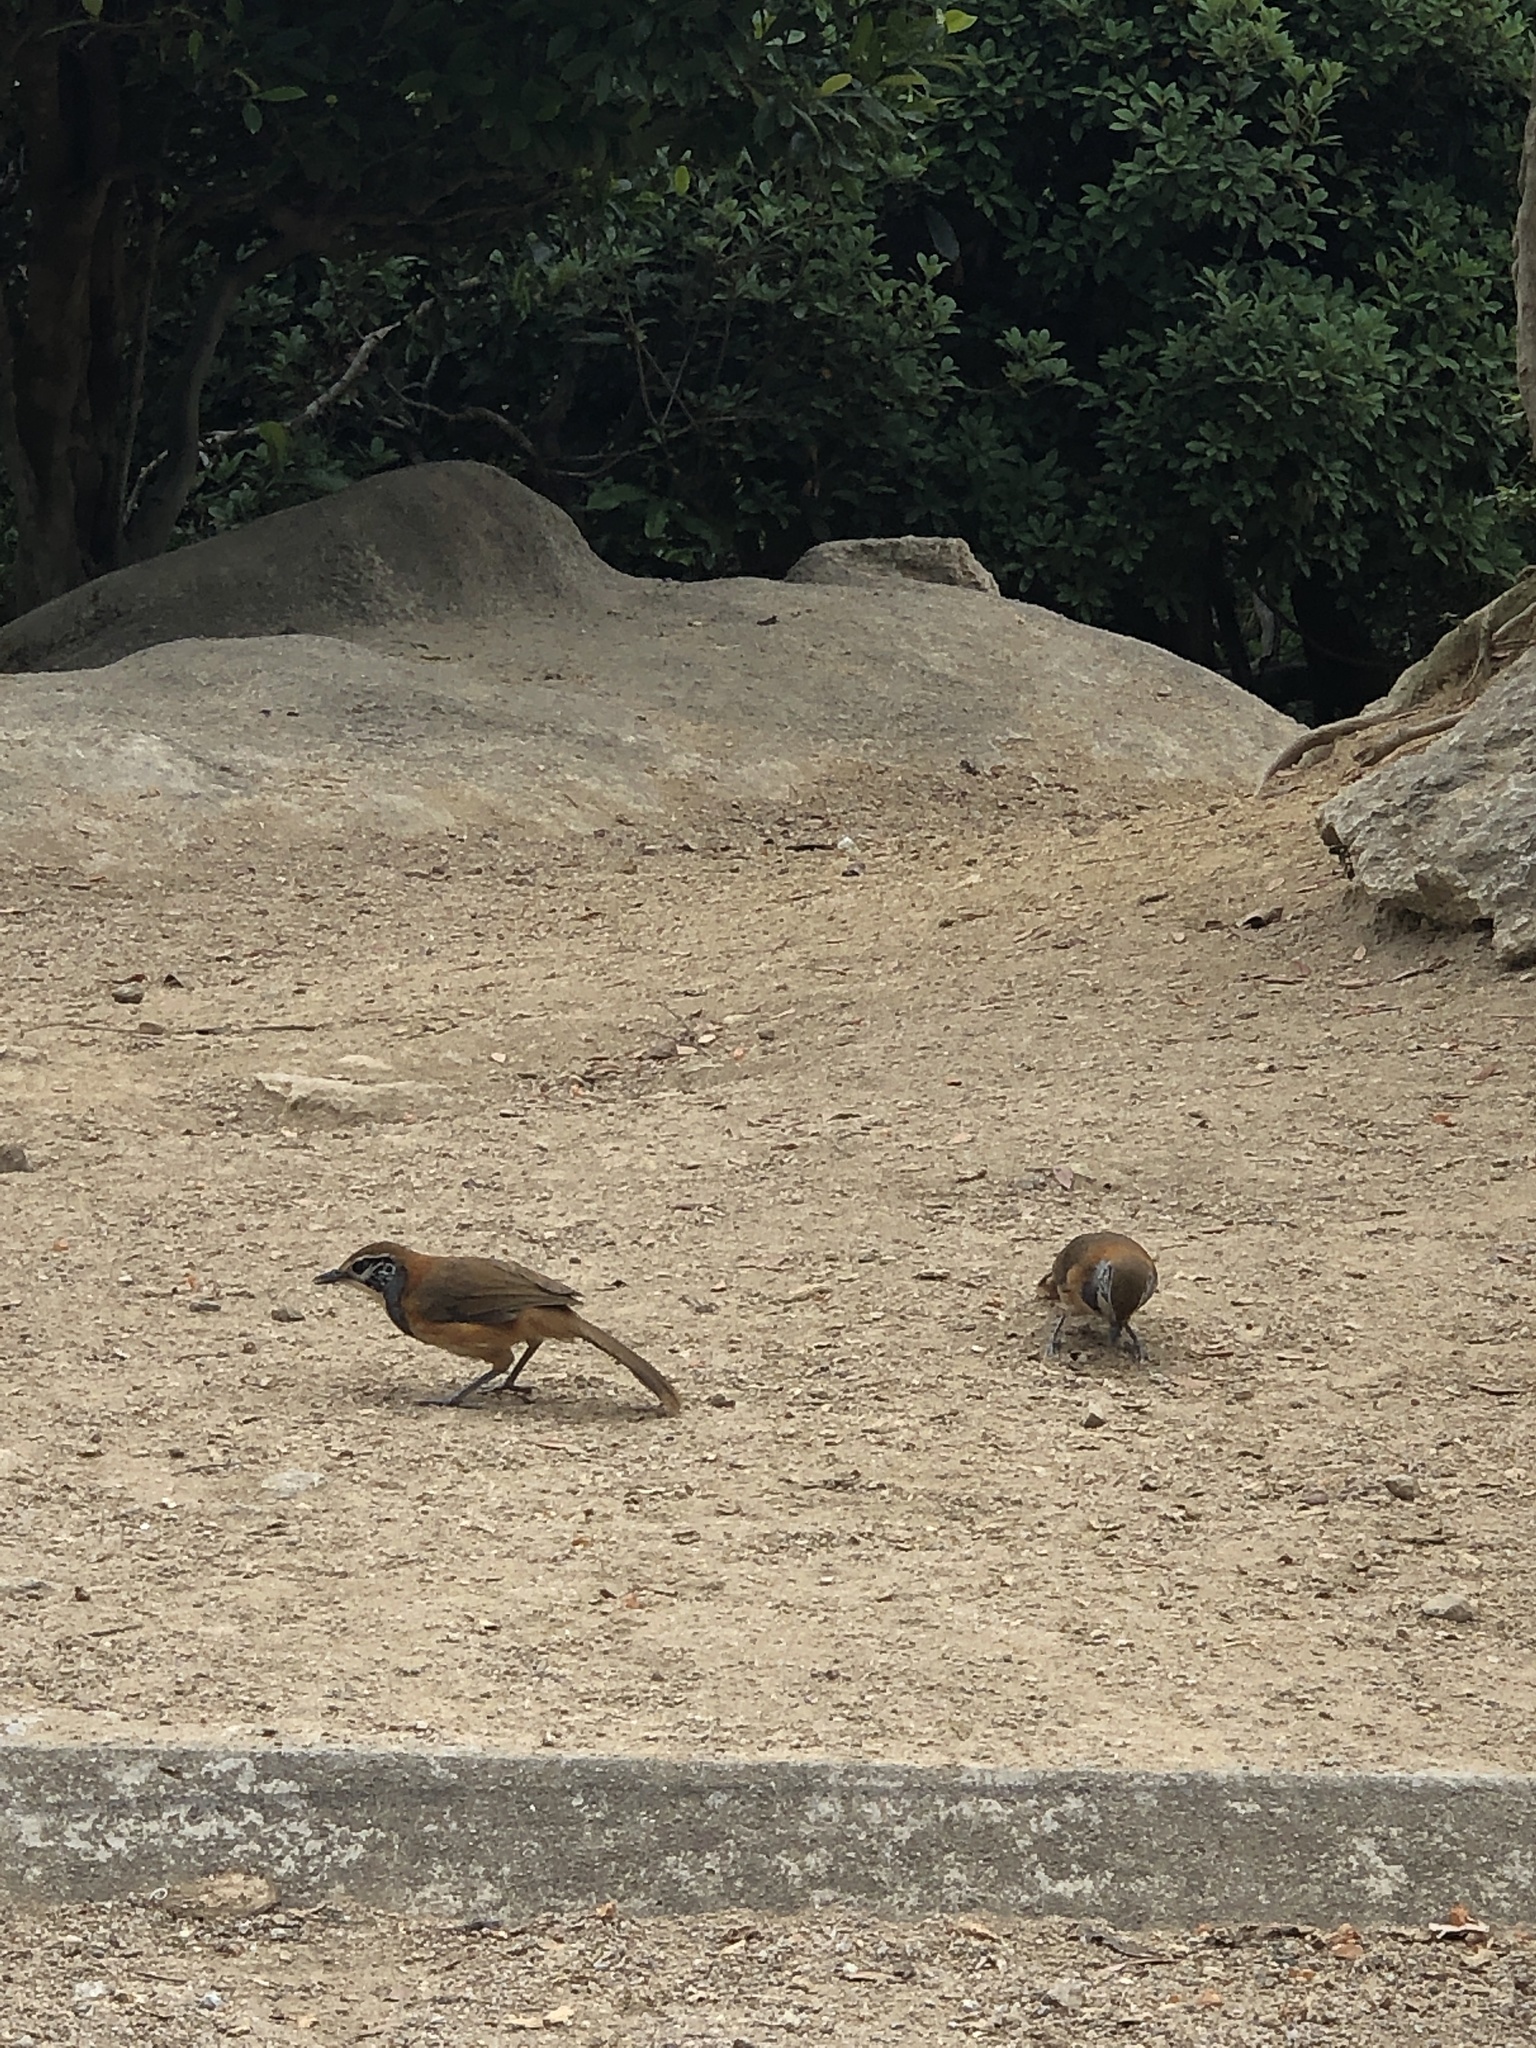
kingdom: Animalia
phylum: Chordata
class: Aves
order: Passeriformes
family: Leiothrichidae
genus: Garrulax
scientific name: Garrulax pectoralis
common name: Greater necklaced laughingthrush
